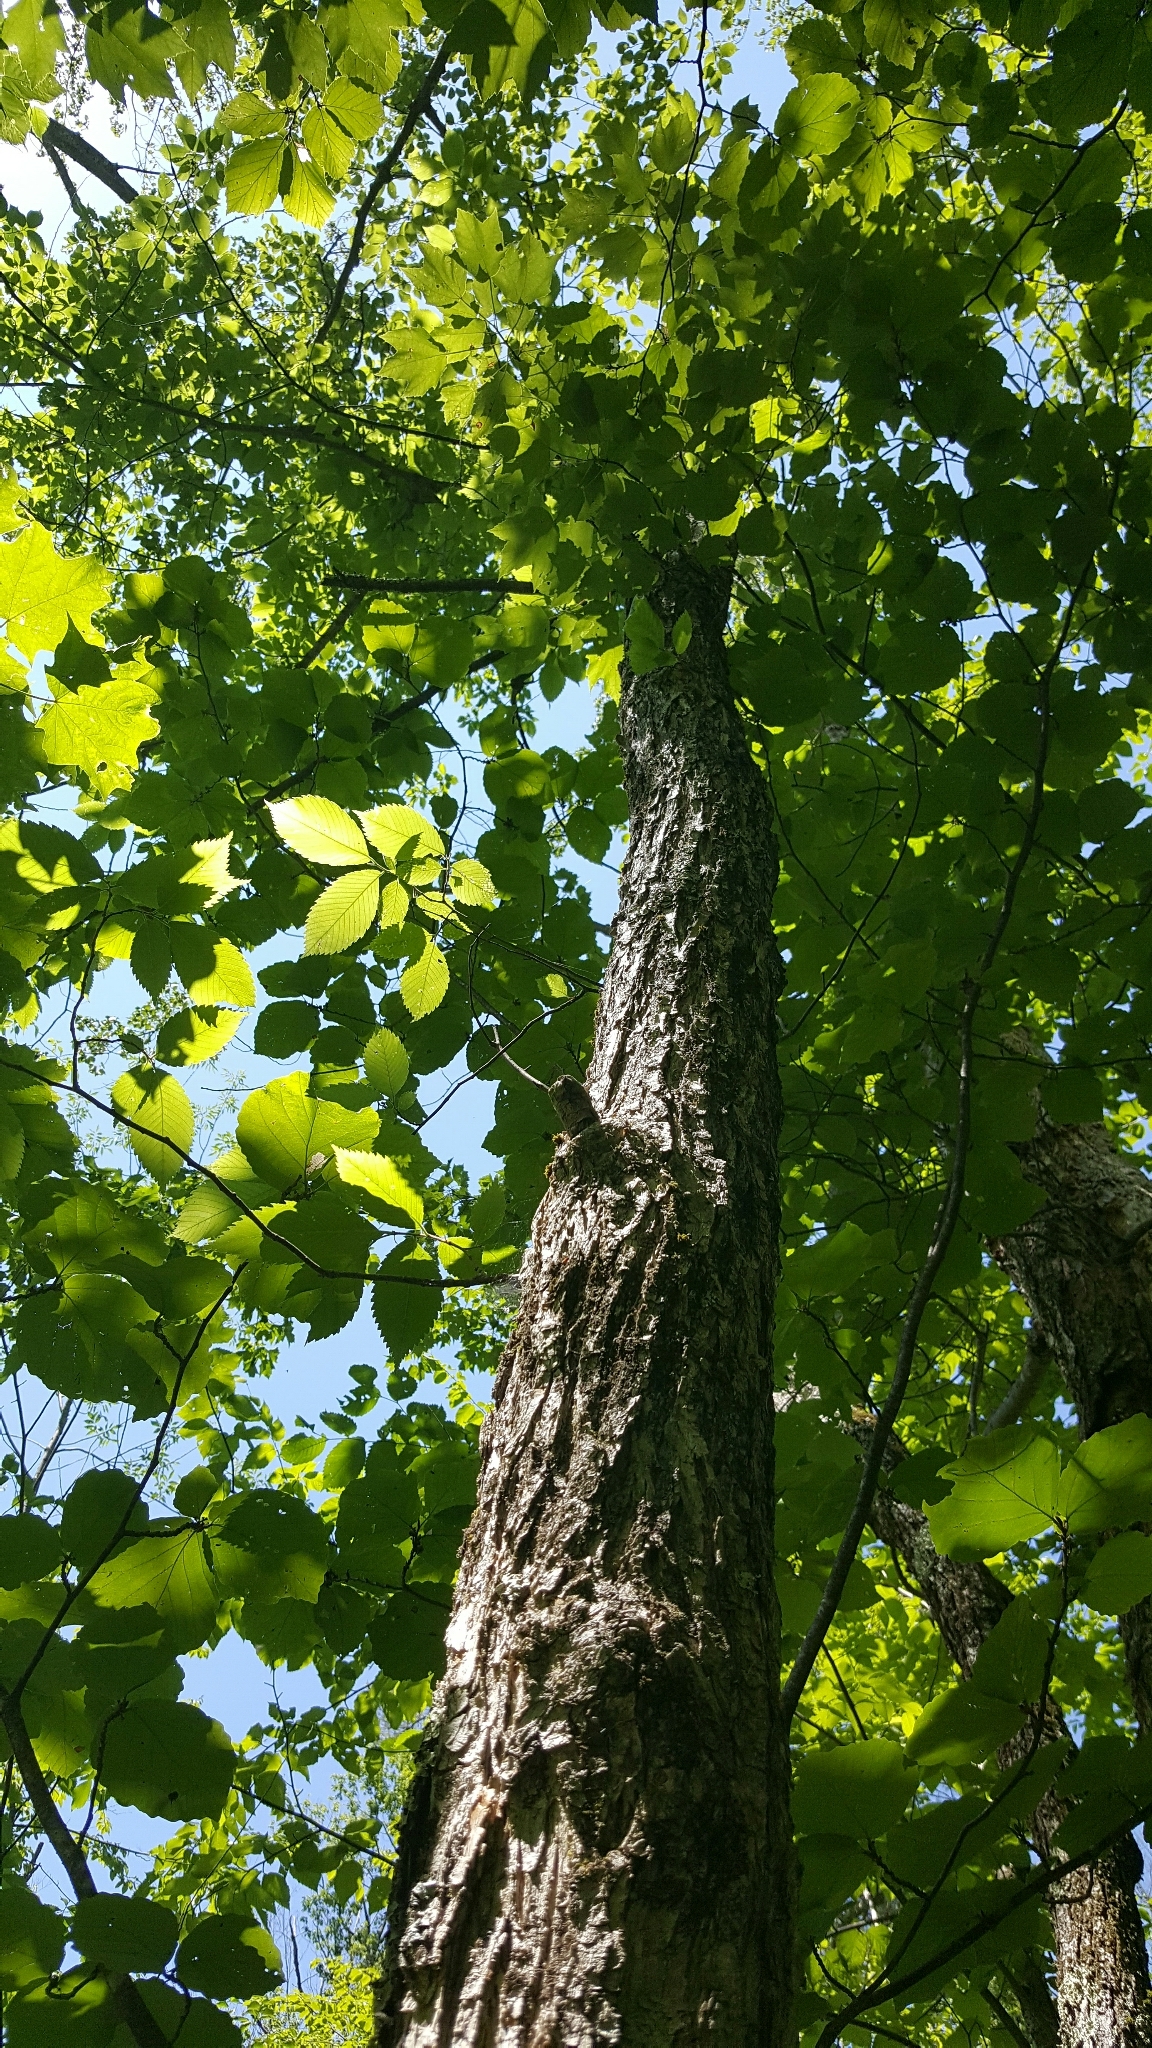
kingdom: Plantae
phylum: Tracheophyta
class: Magnoliopsida
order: Rosales
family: Ulmaceae
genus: Ulmus
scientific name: Ulmus americana
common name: American elm
